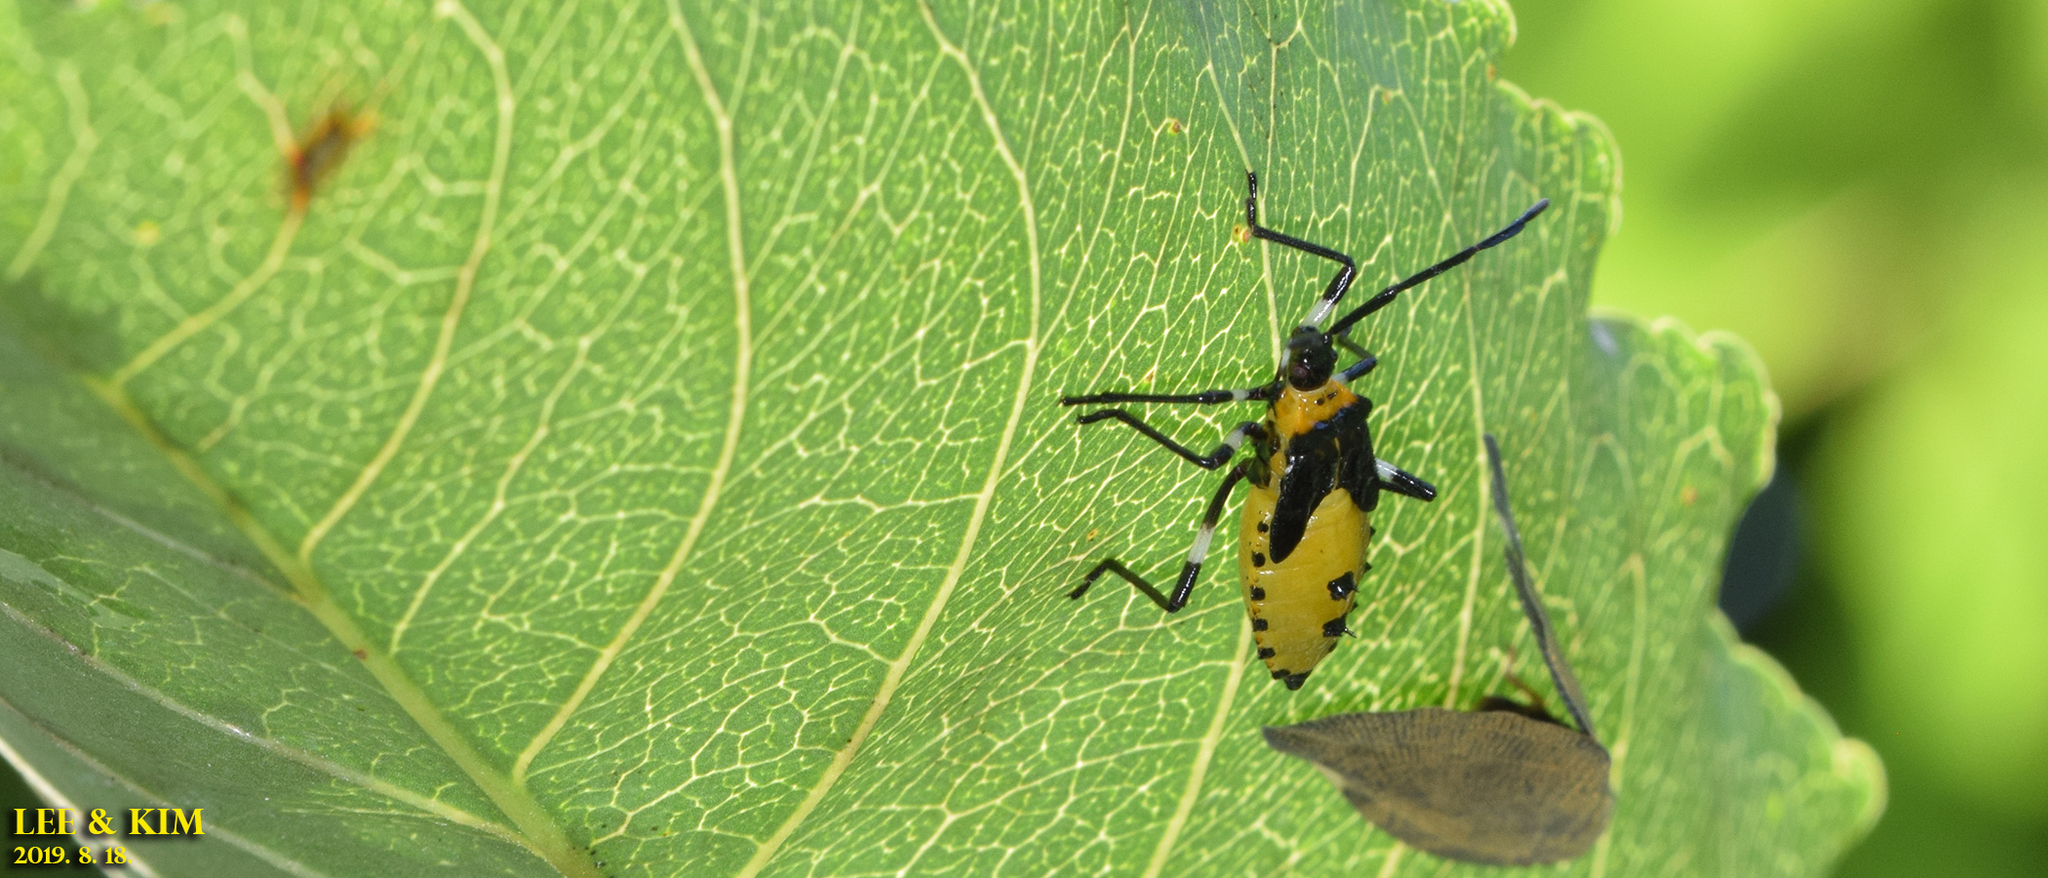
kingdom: Animalia
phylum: Arthropoda
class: Insecta
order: Hemiptera
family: Coreidae
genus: Plinachtus
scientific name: Plinachtus bicoloripes
